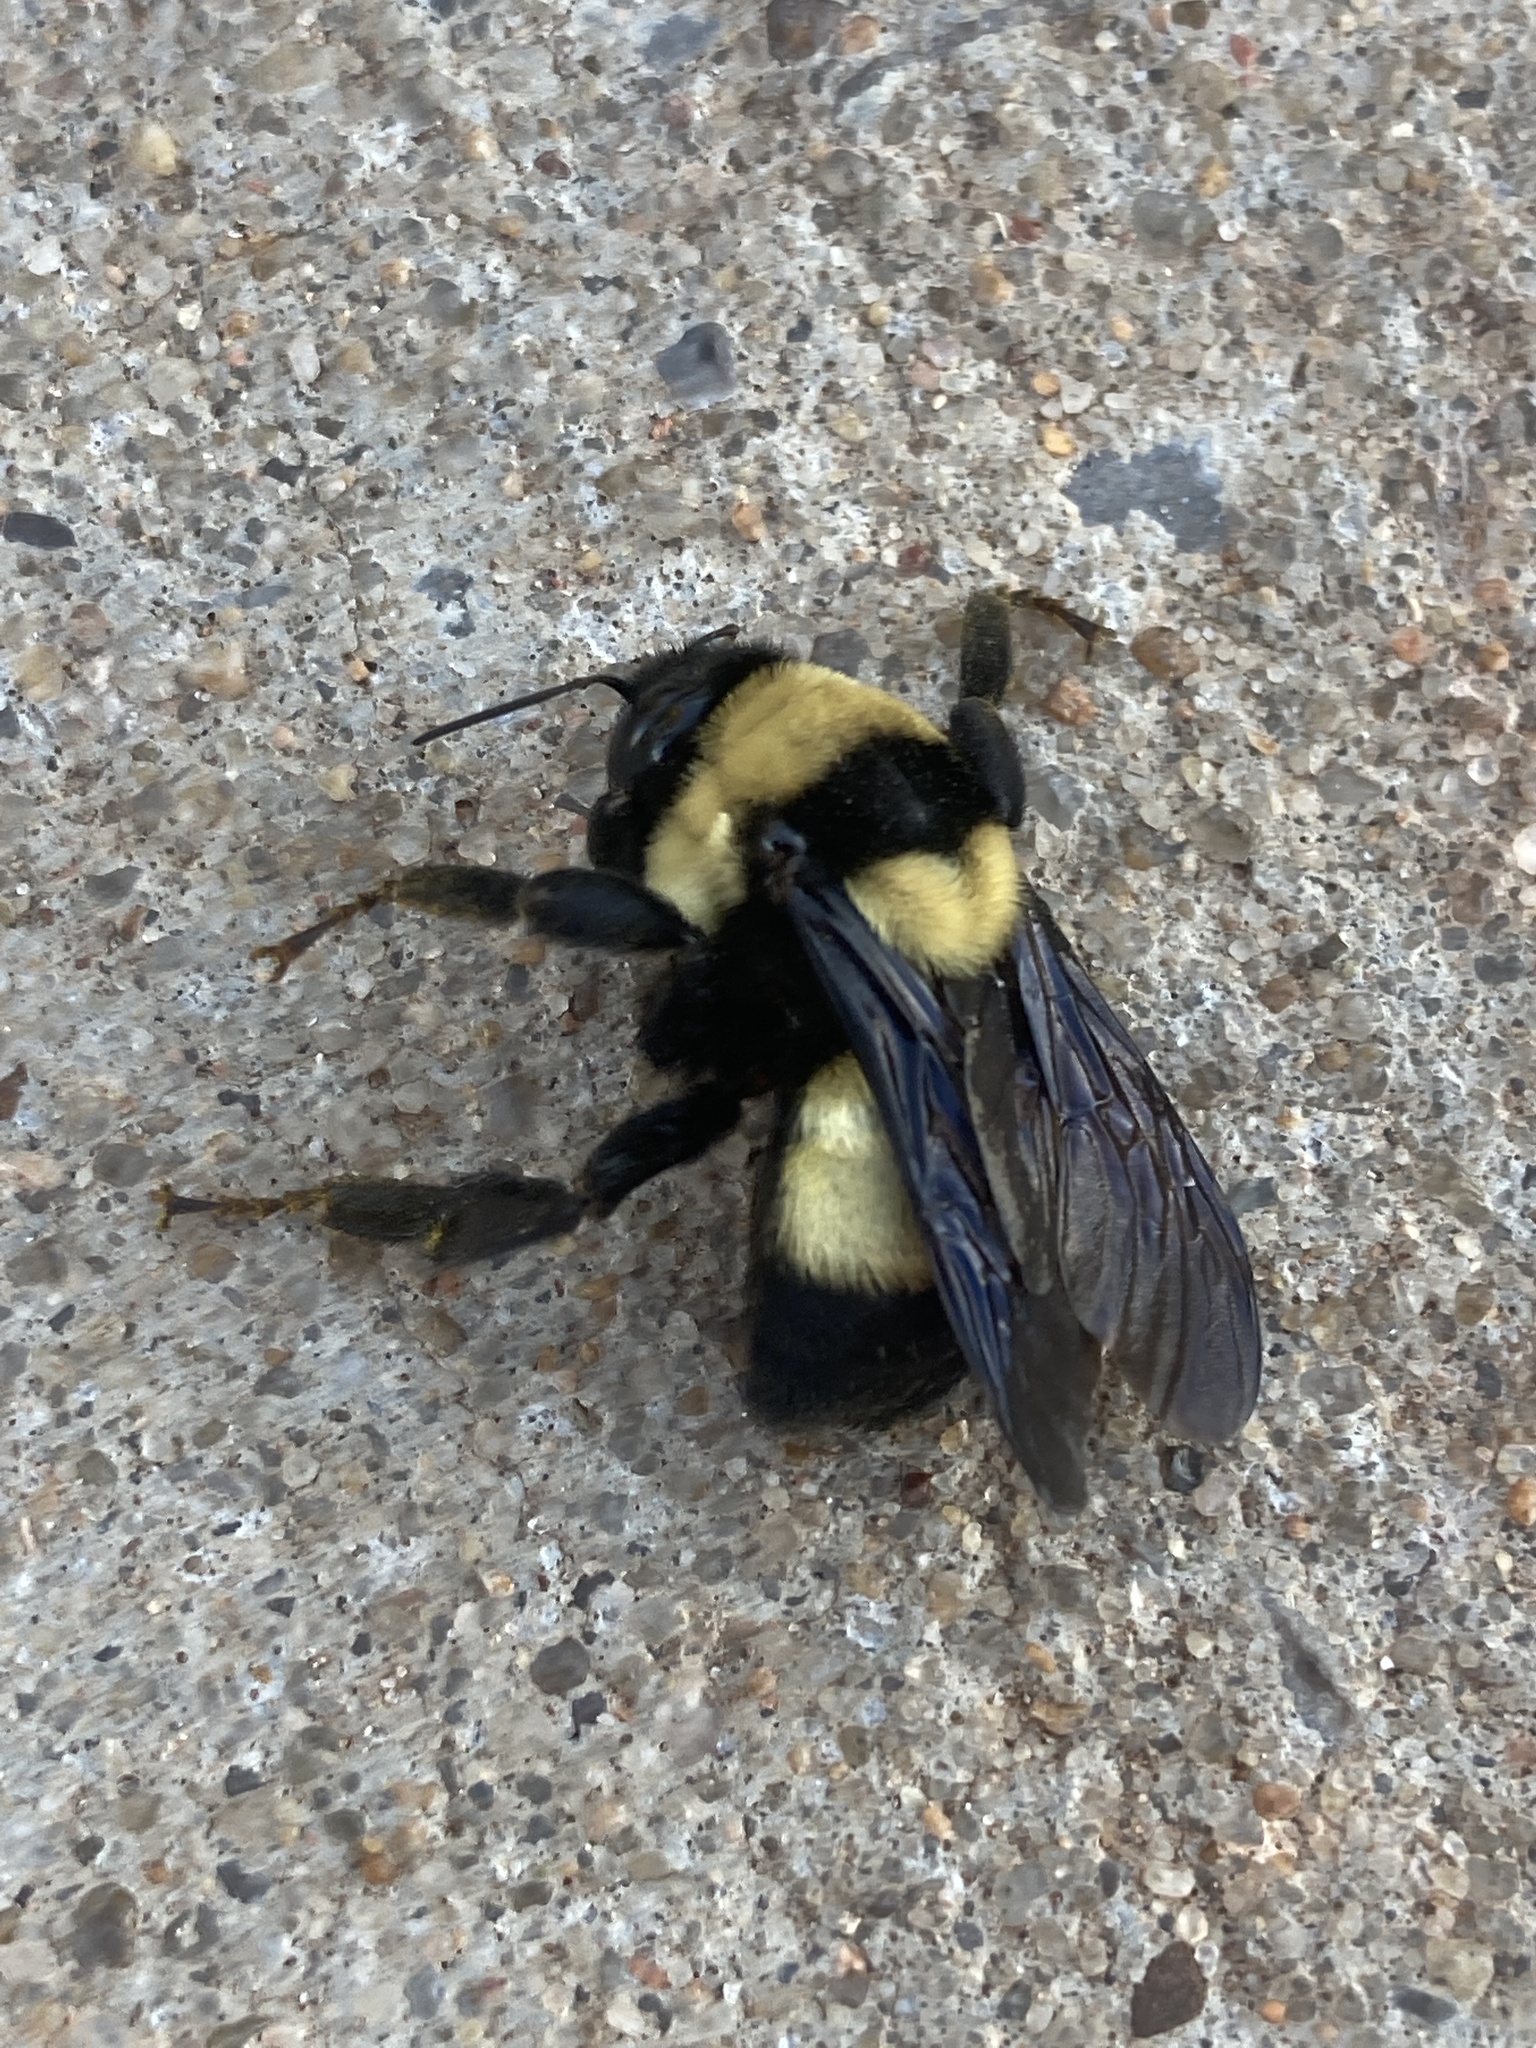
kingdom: Animalia
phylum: Arthropoda
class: Insecta
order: Hymenoptera
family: Apidae
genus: Bombus
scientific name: Bombus fraternus
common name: Southern plains bumble bee
